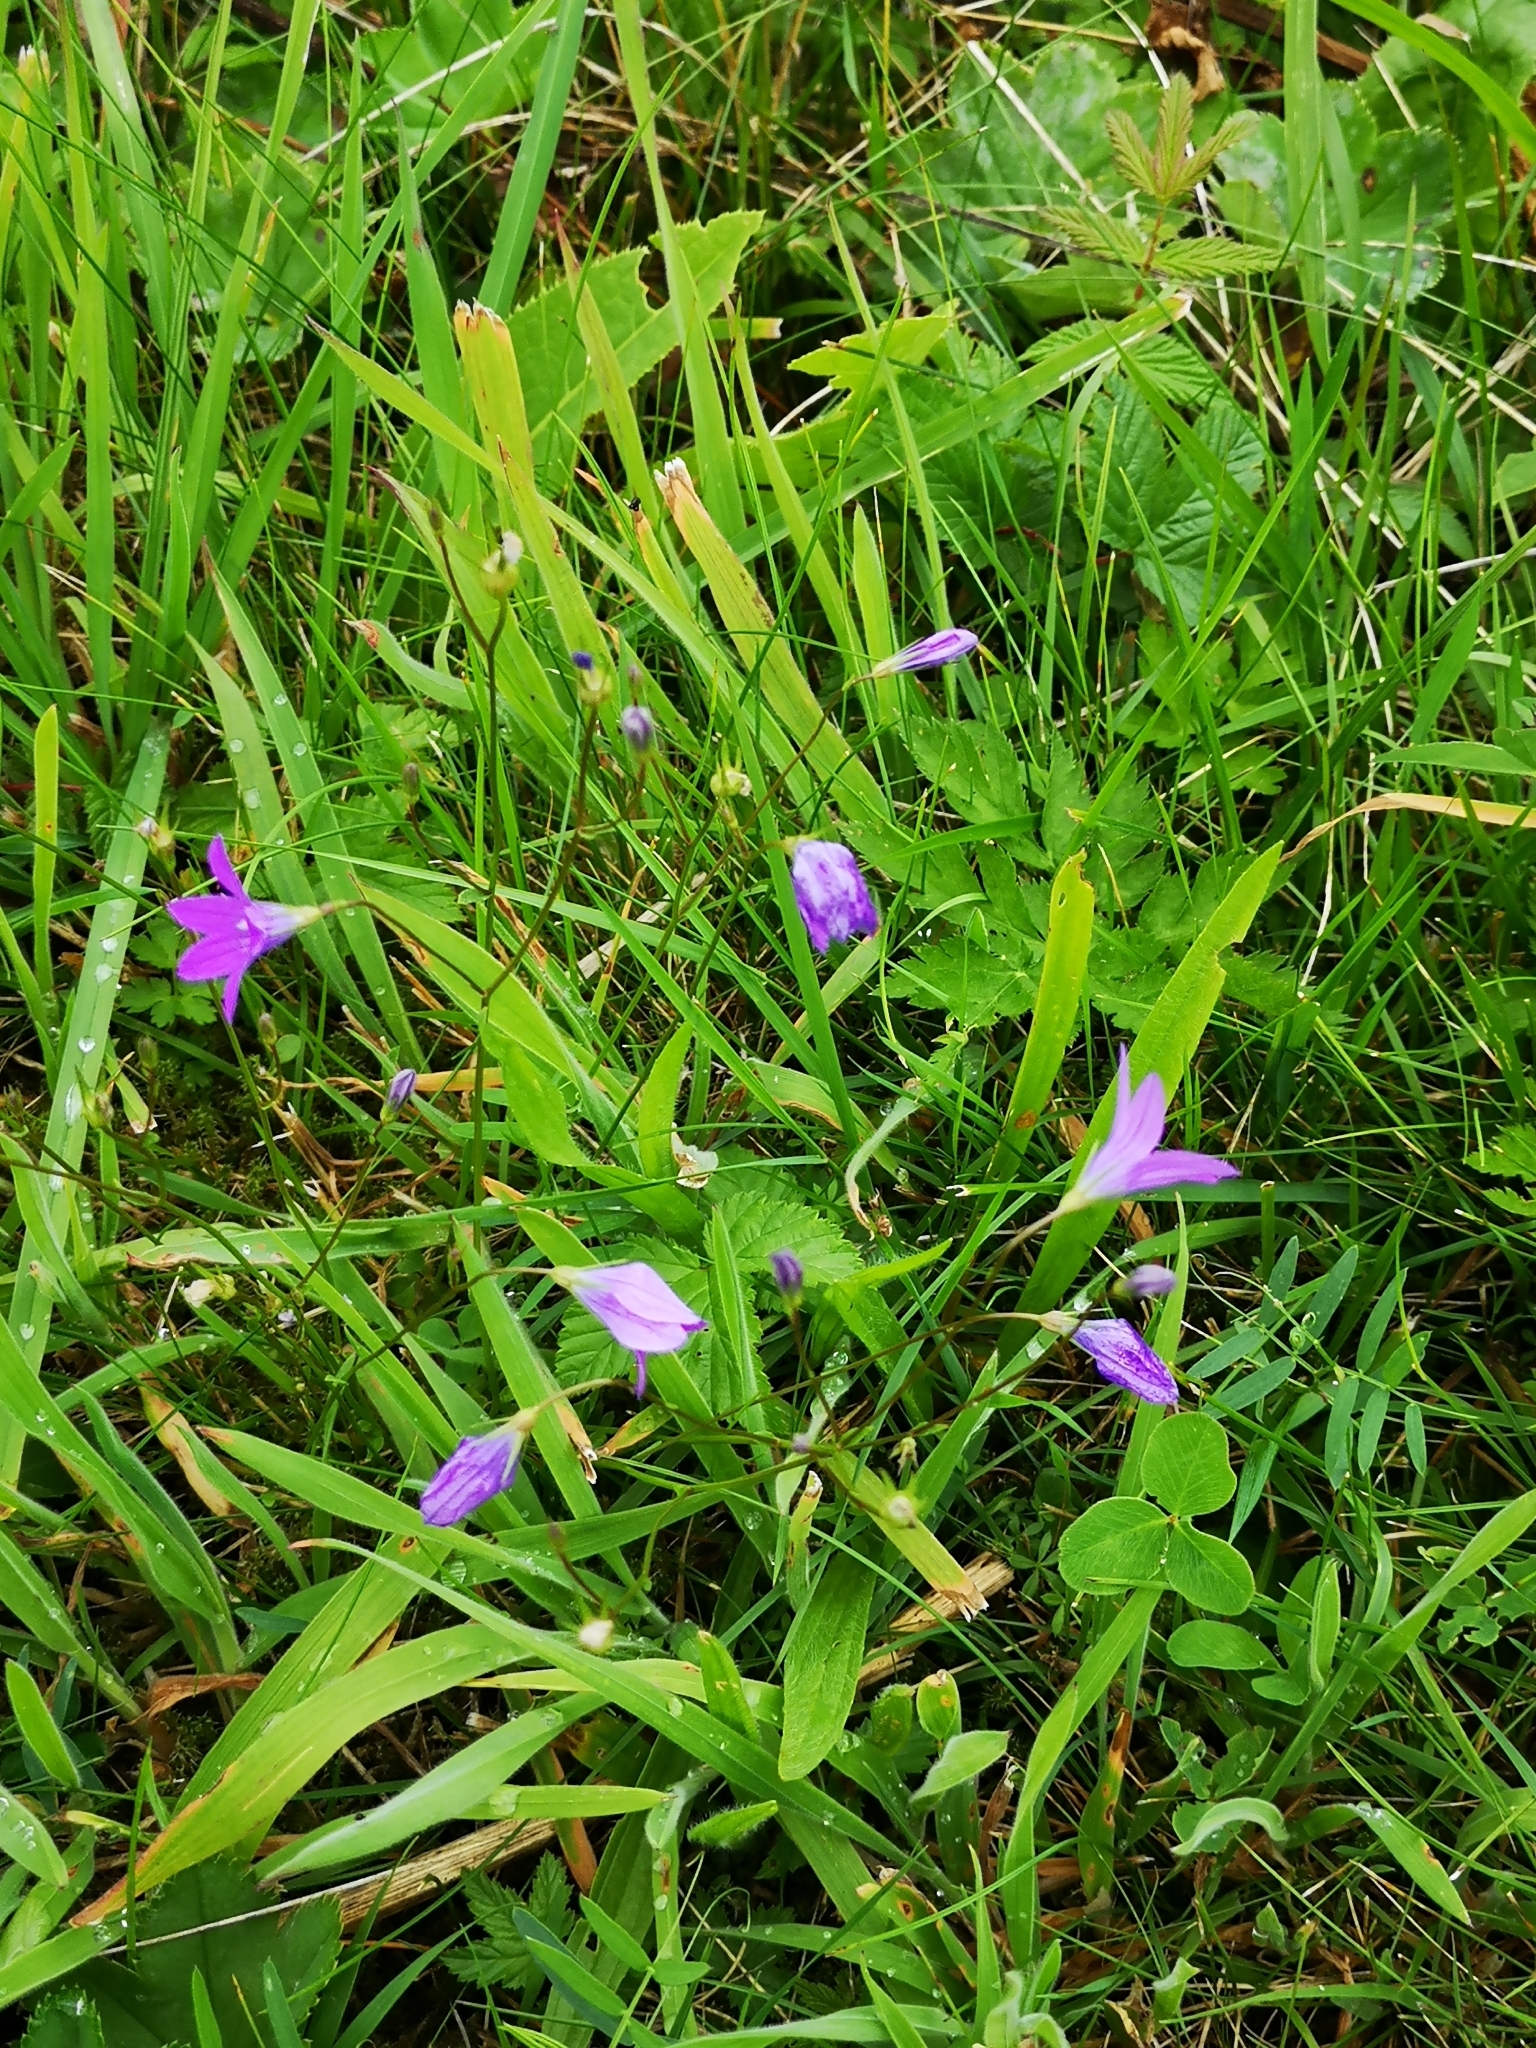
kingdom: Plantae
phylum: Tracheophyta
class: Magnoliopsida
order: Asterales
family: Campanulaceae
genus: Campanula
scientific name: Campanula patula
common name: Spreading bellflower
